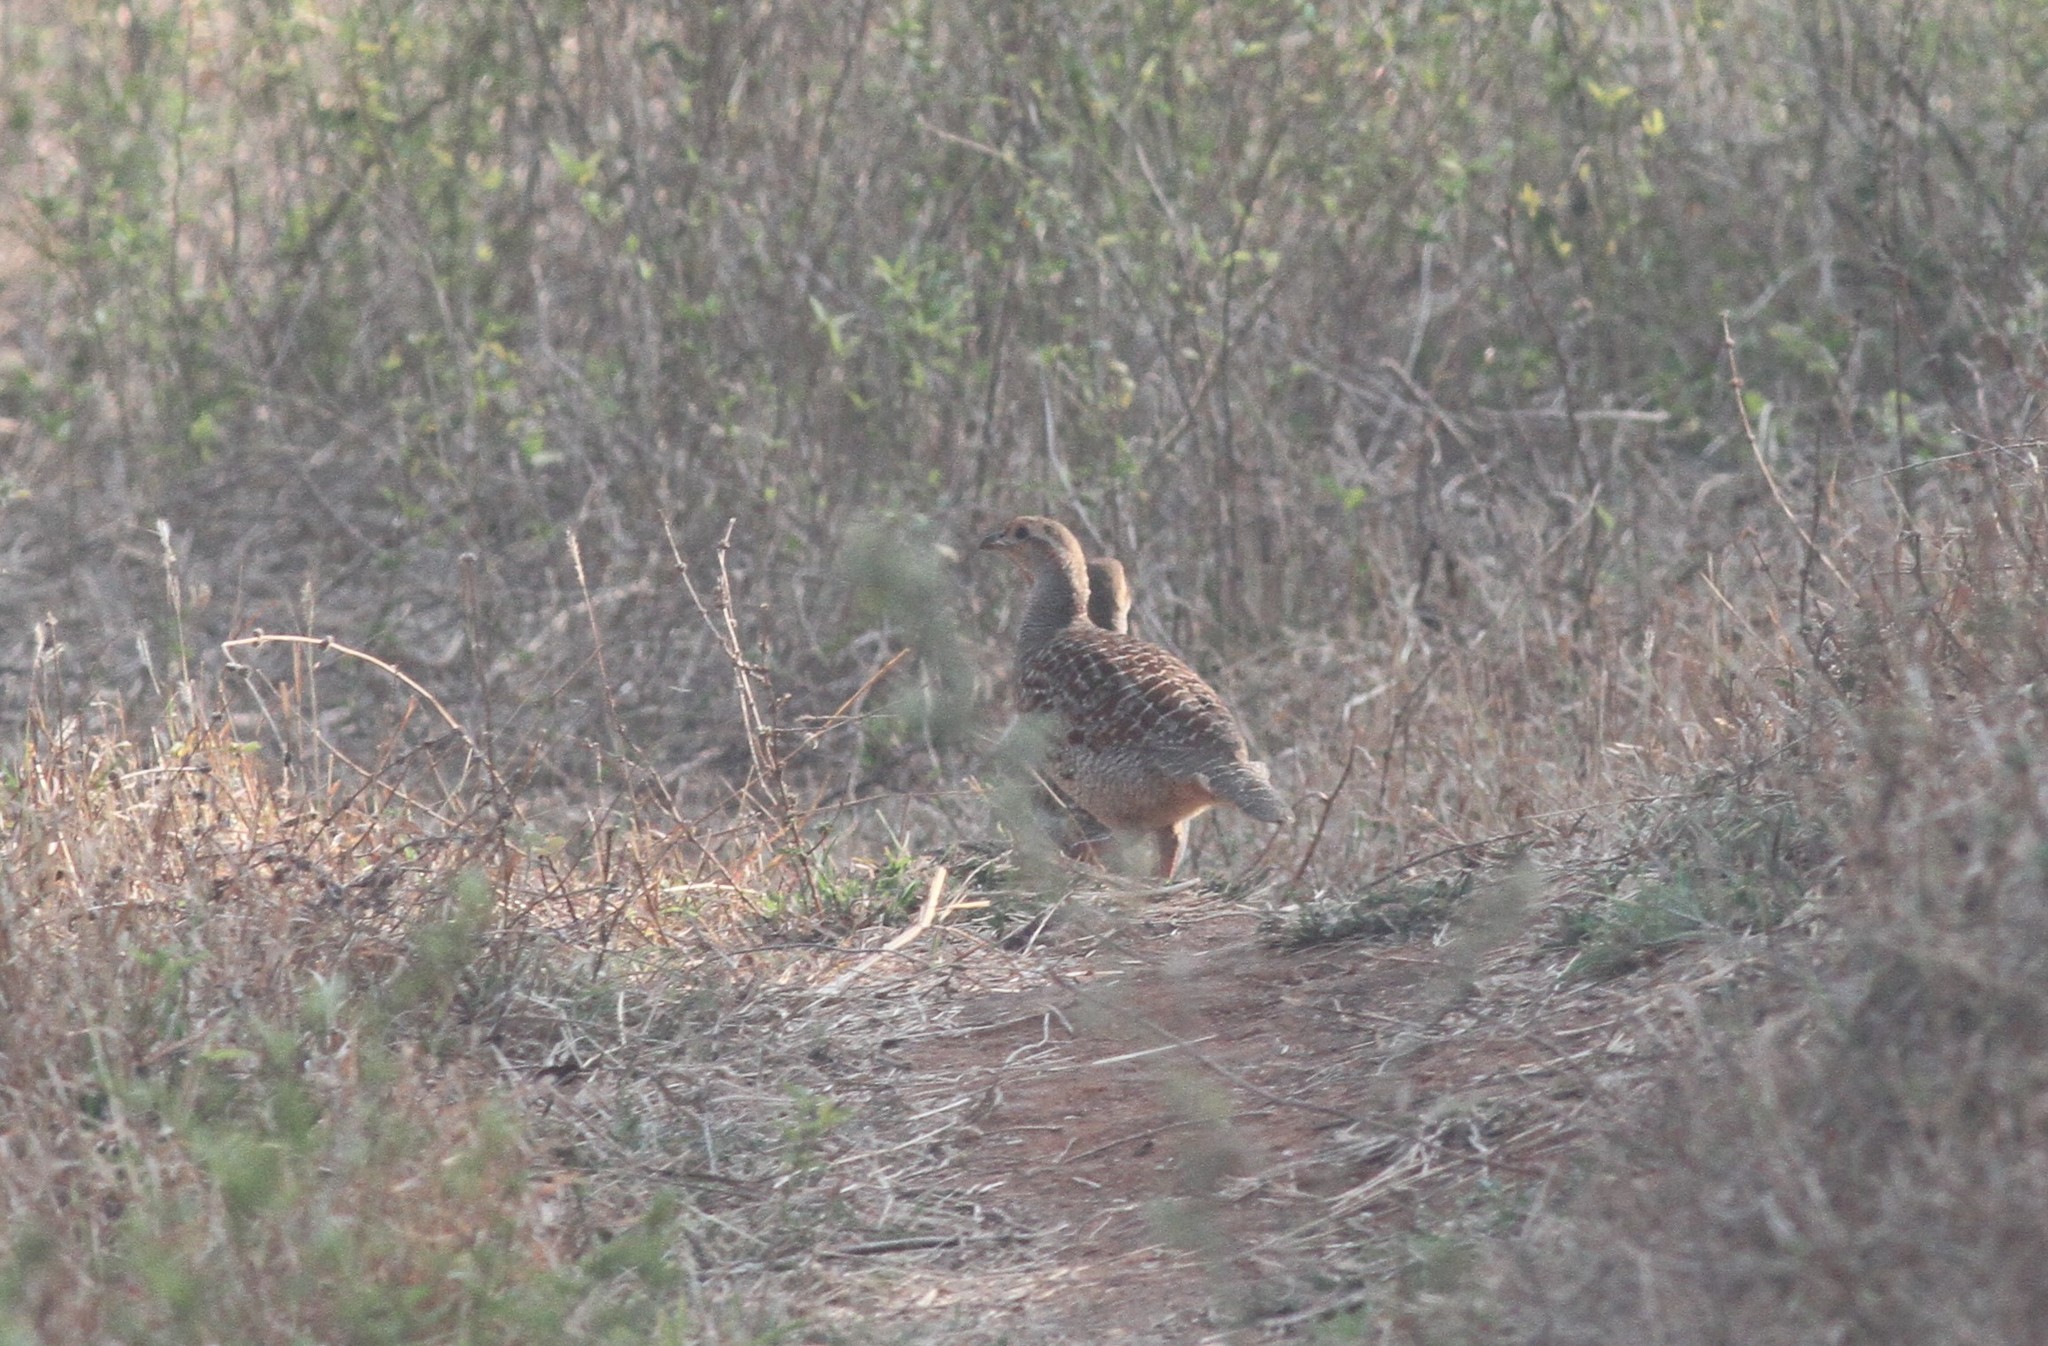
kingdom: Animalia
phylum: Chordata
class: Aves
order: Galliformes
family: Phasianidae
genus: Ortygornis
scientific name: Ortygornis pondicerianus
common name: Grey francolin
